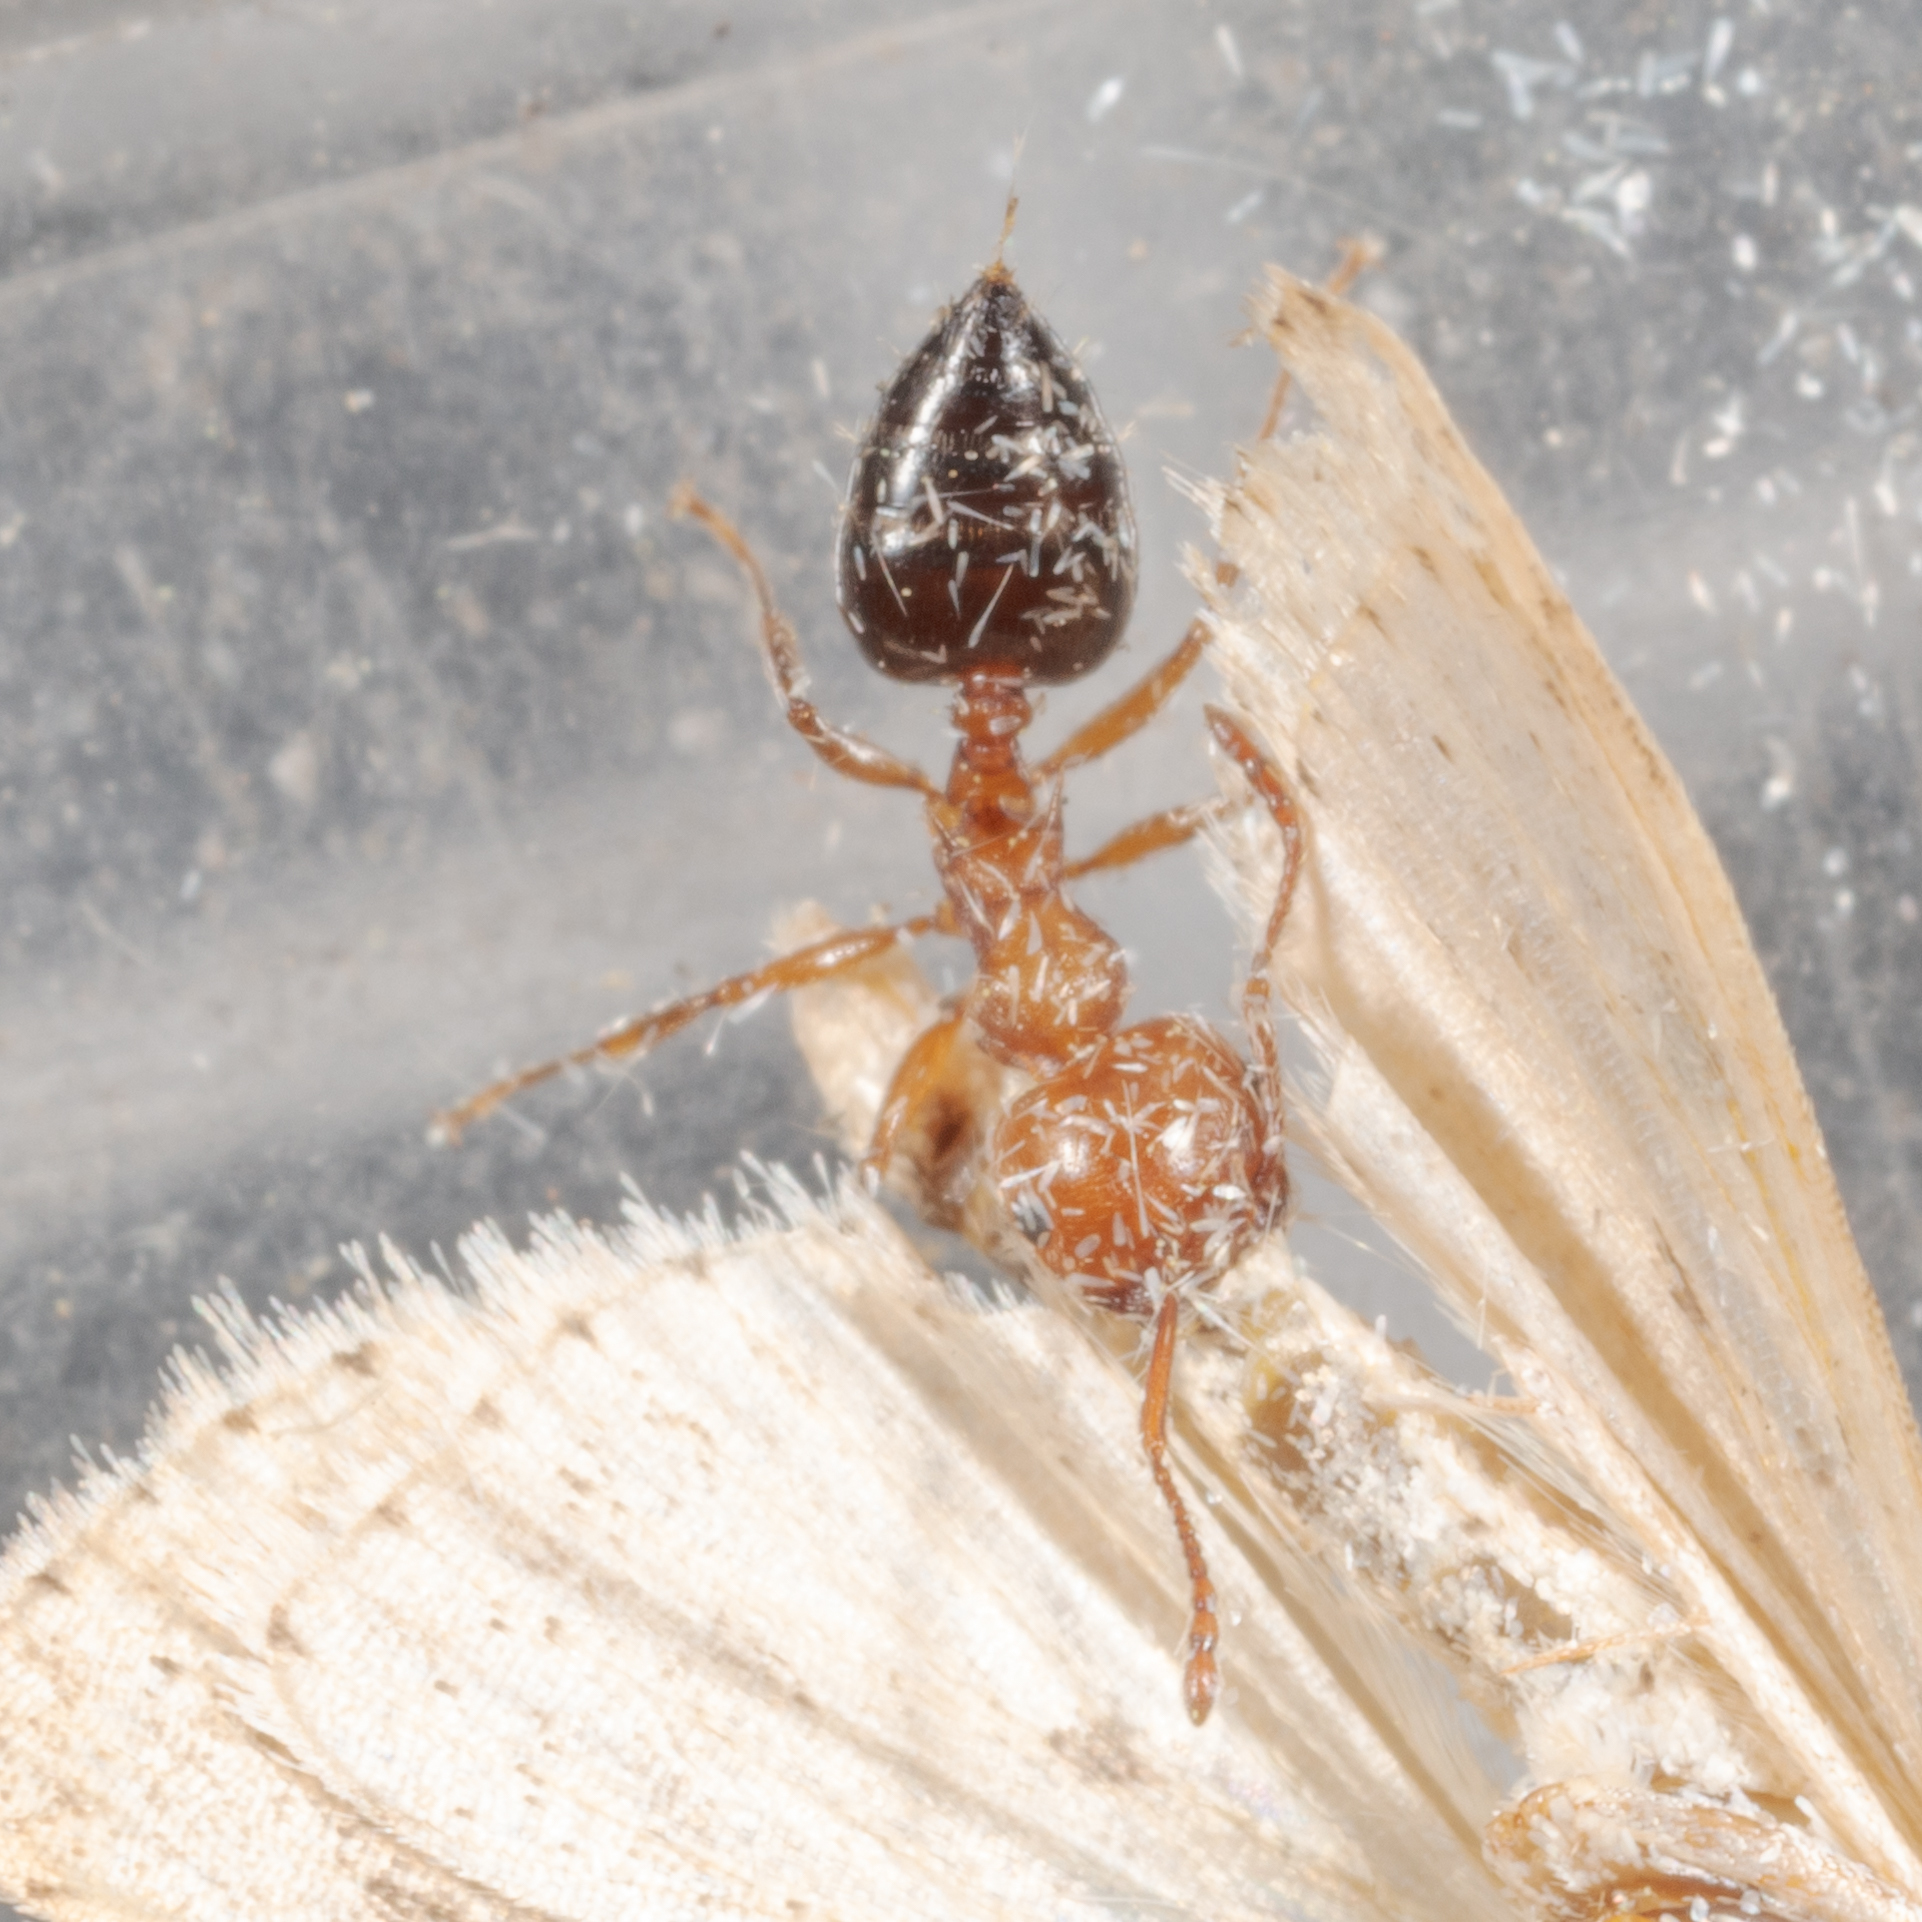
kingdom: Animalia
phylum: Arthropoda
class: Insecta
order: Hymenoptera
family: Formicidae
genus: Crematogaster
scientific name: Crematogaster laeviuscula
